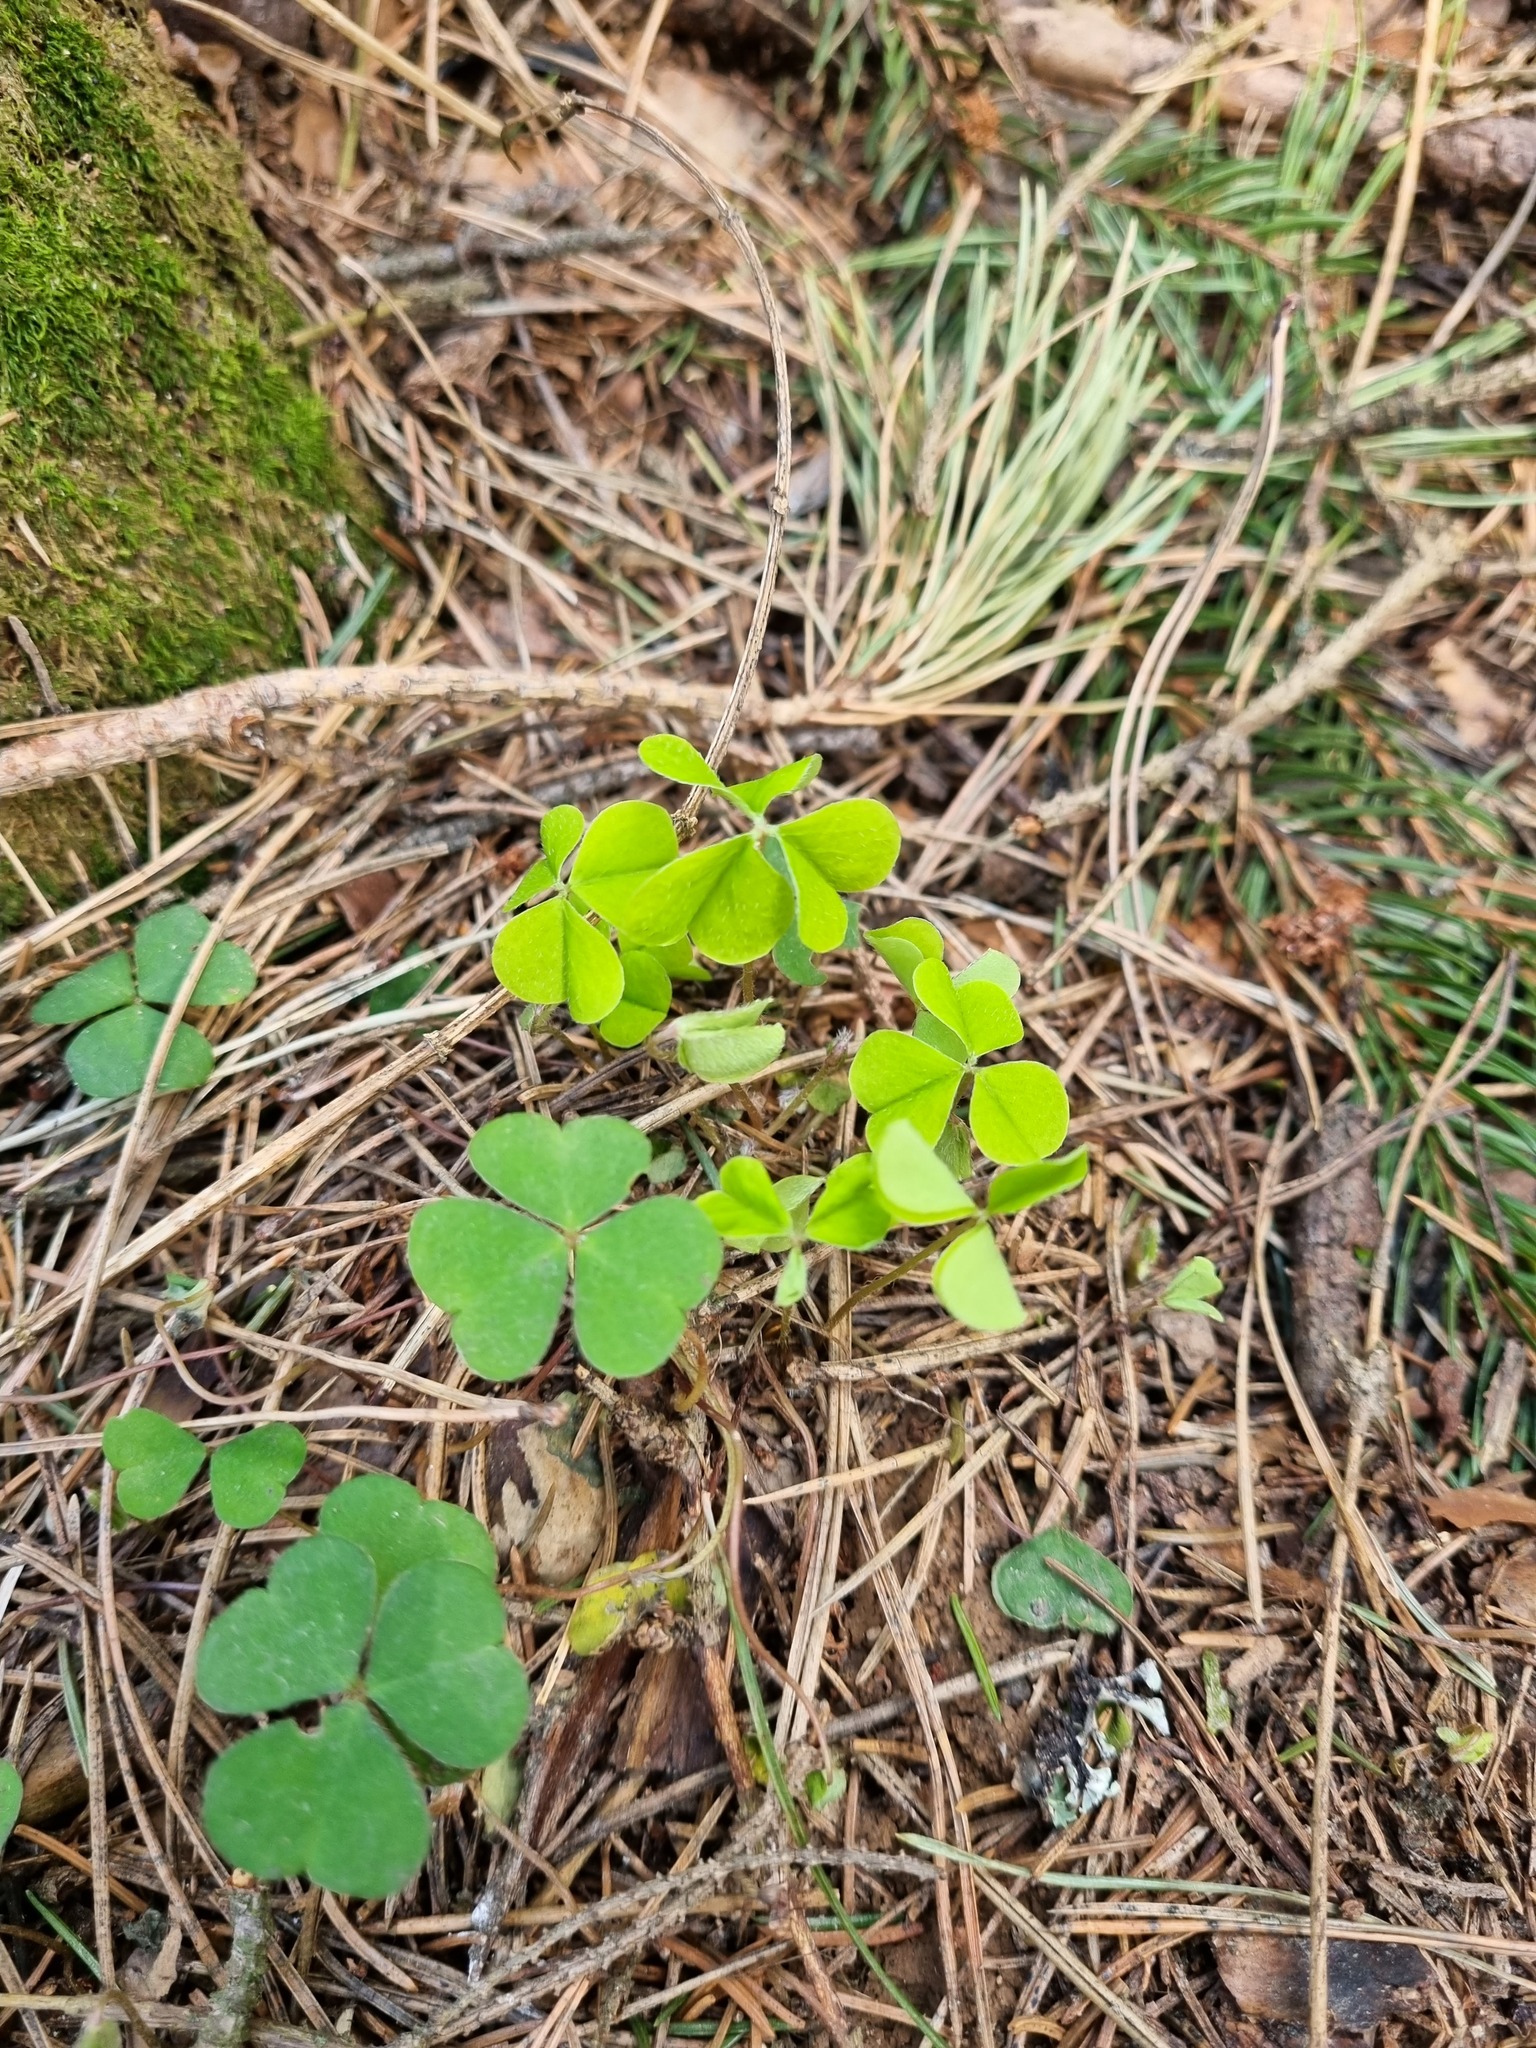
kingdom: Plantae
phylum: Tracheophyta
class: Magnoliopsida
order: Oxalidales
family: Oxalidaceae
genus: Oxalis
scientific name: Oxalis acetosella
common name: Wood-sorrel
